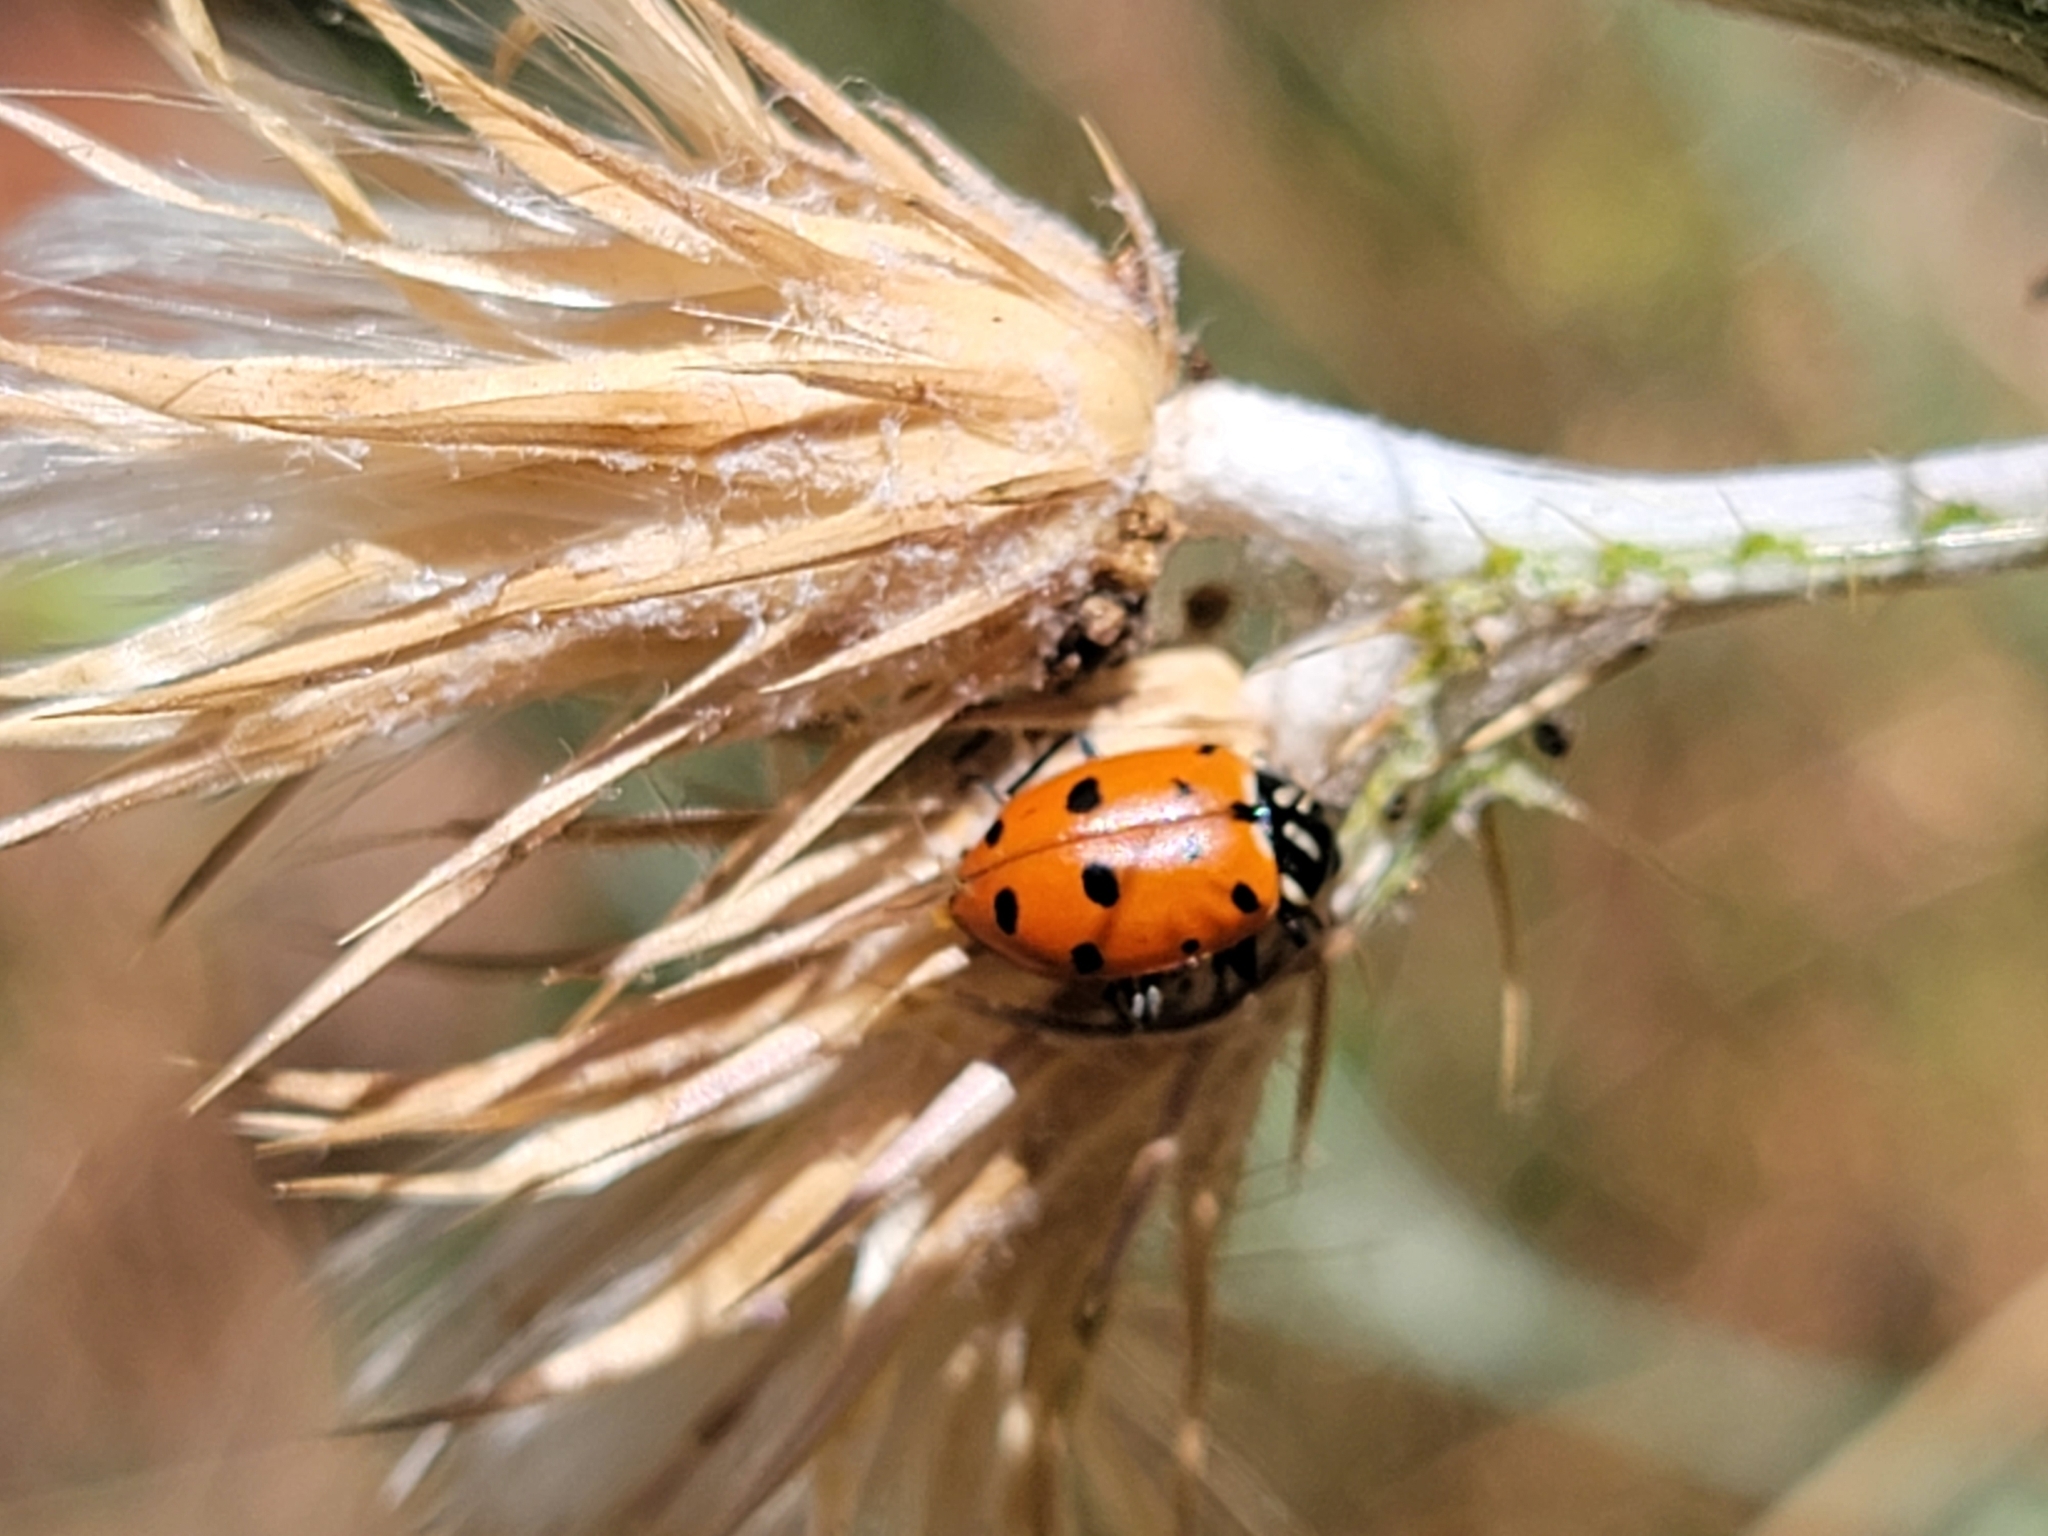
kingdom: Animalia
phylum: Arthropoda
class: Insecta
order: Coleoptera
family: Coccinellidae
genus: Hippodamia
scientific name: Hippodamia convergens
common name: Convergent lady beetle
